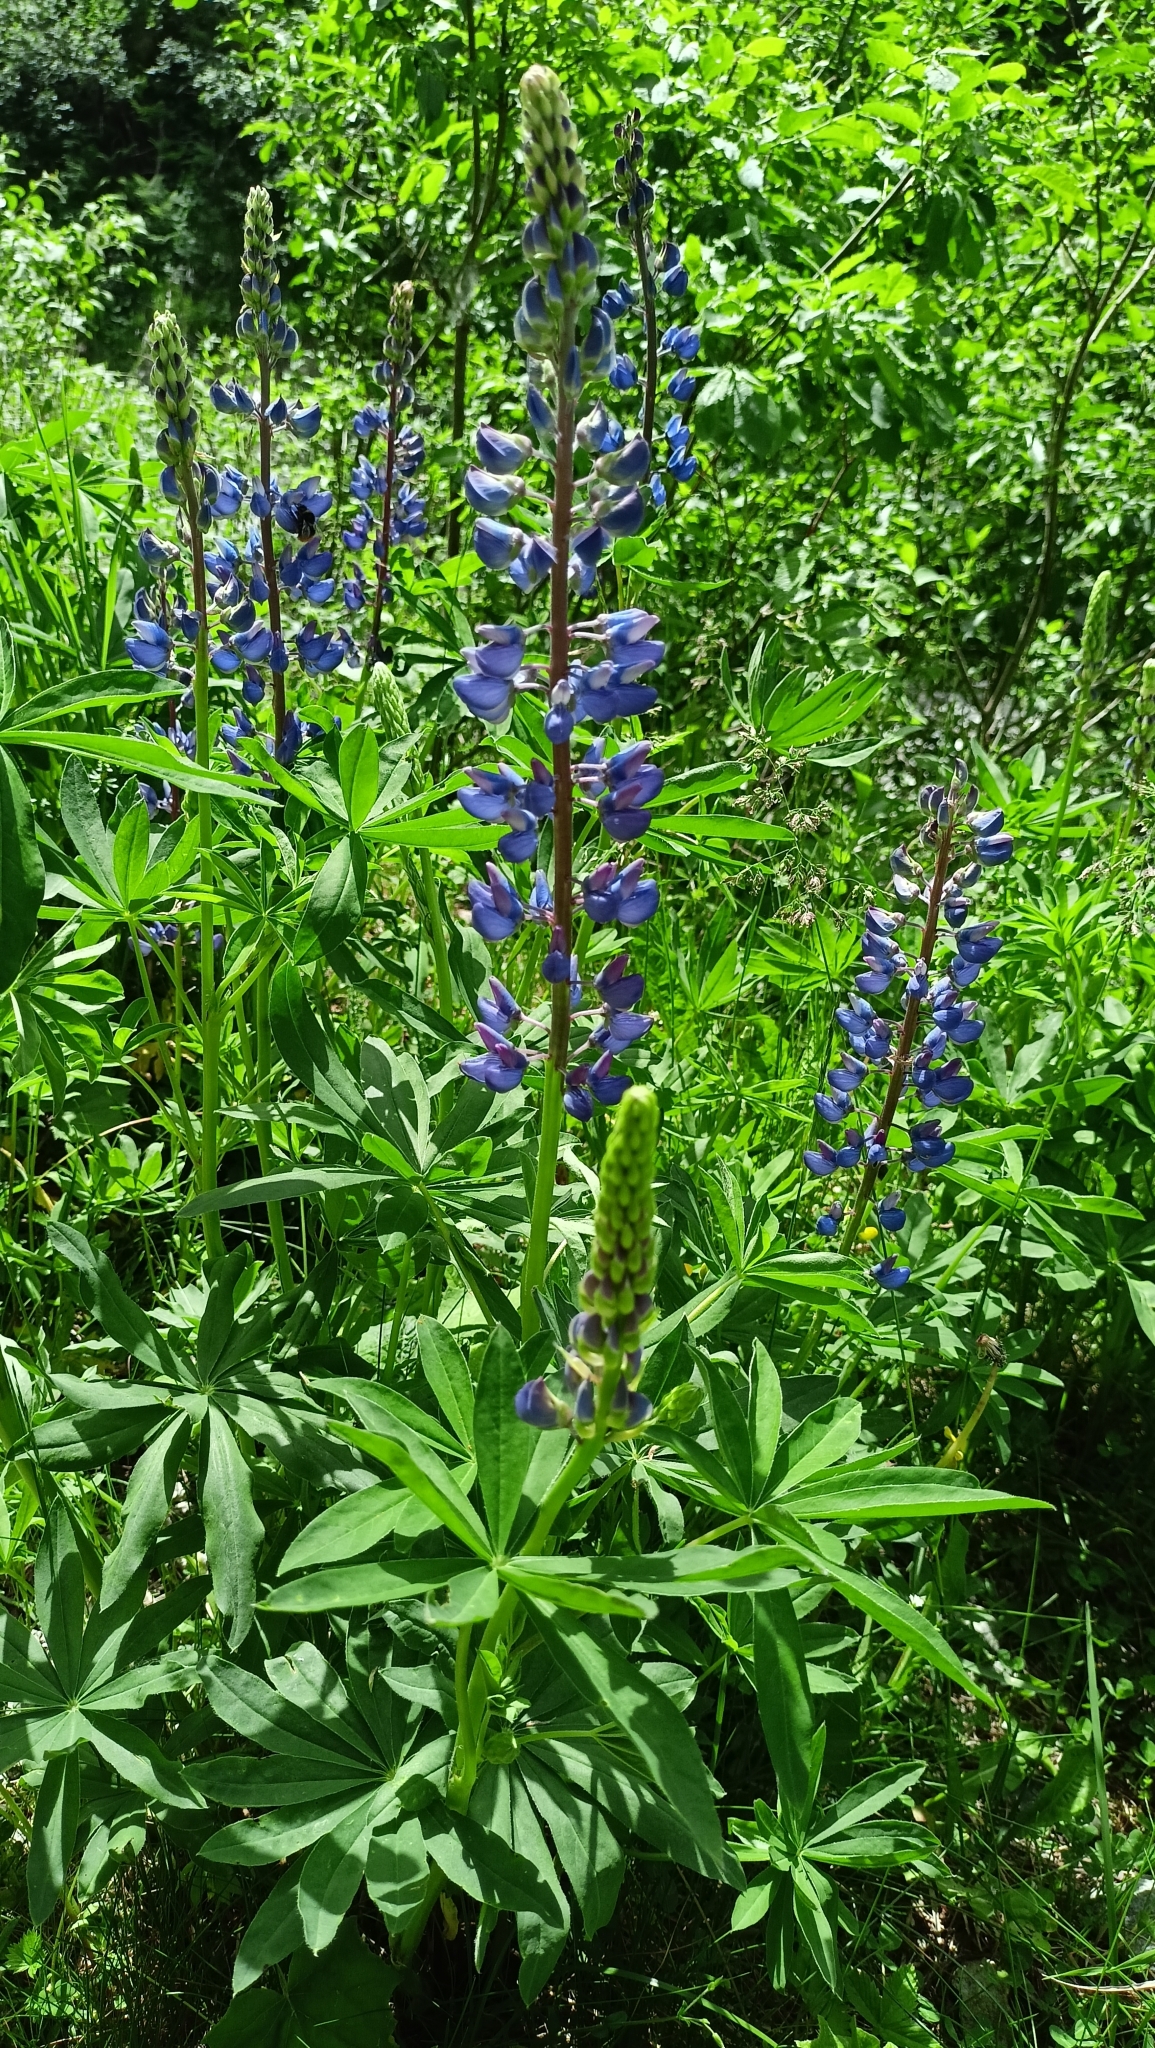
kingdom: Plantae
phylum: Tracheophyta
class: Magnoliopsida
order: Fabales
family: Fabaceae
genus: Lupinus
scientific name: Lupinus polyphyllus
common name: Garden lupin
